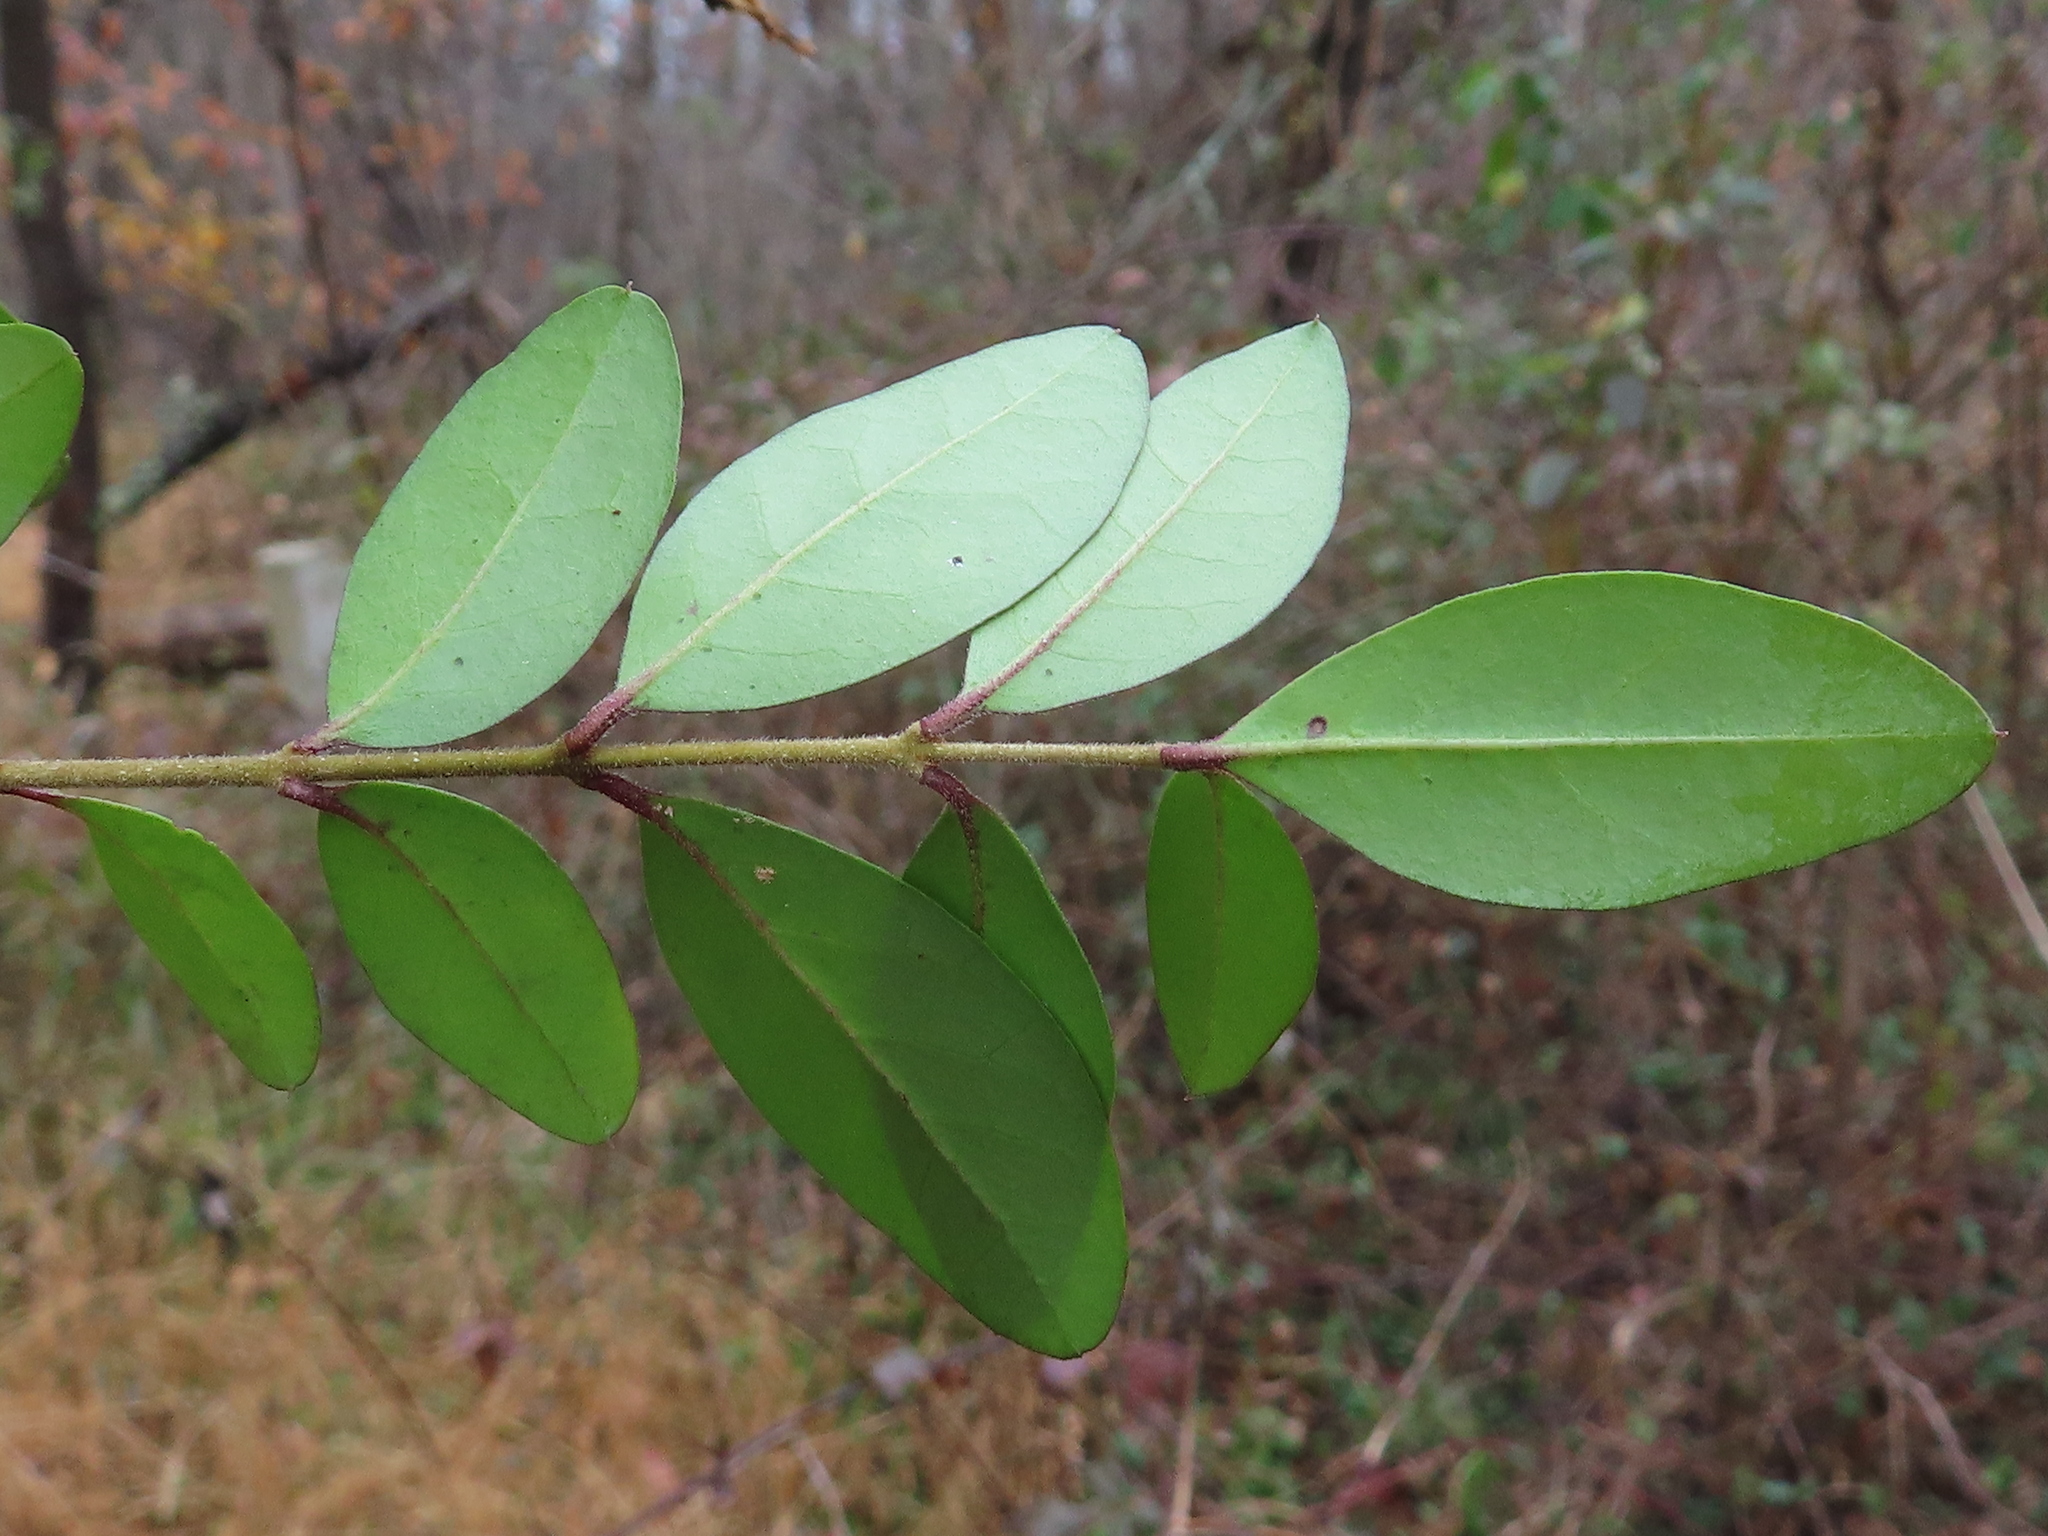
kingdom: Plantae
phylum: Tracheophyta
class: Magnoliopsida
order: Lamiales
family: Oleaceae
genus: Ligustrum
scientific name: Ligustrum sinense
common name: Chinese privet
